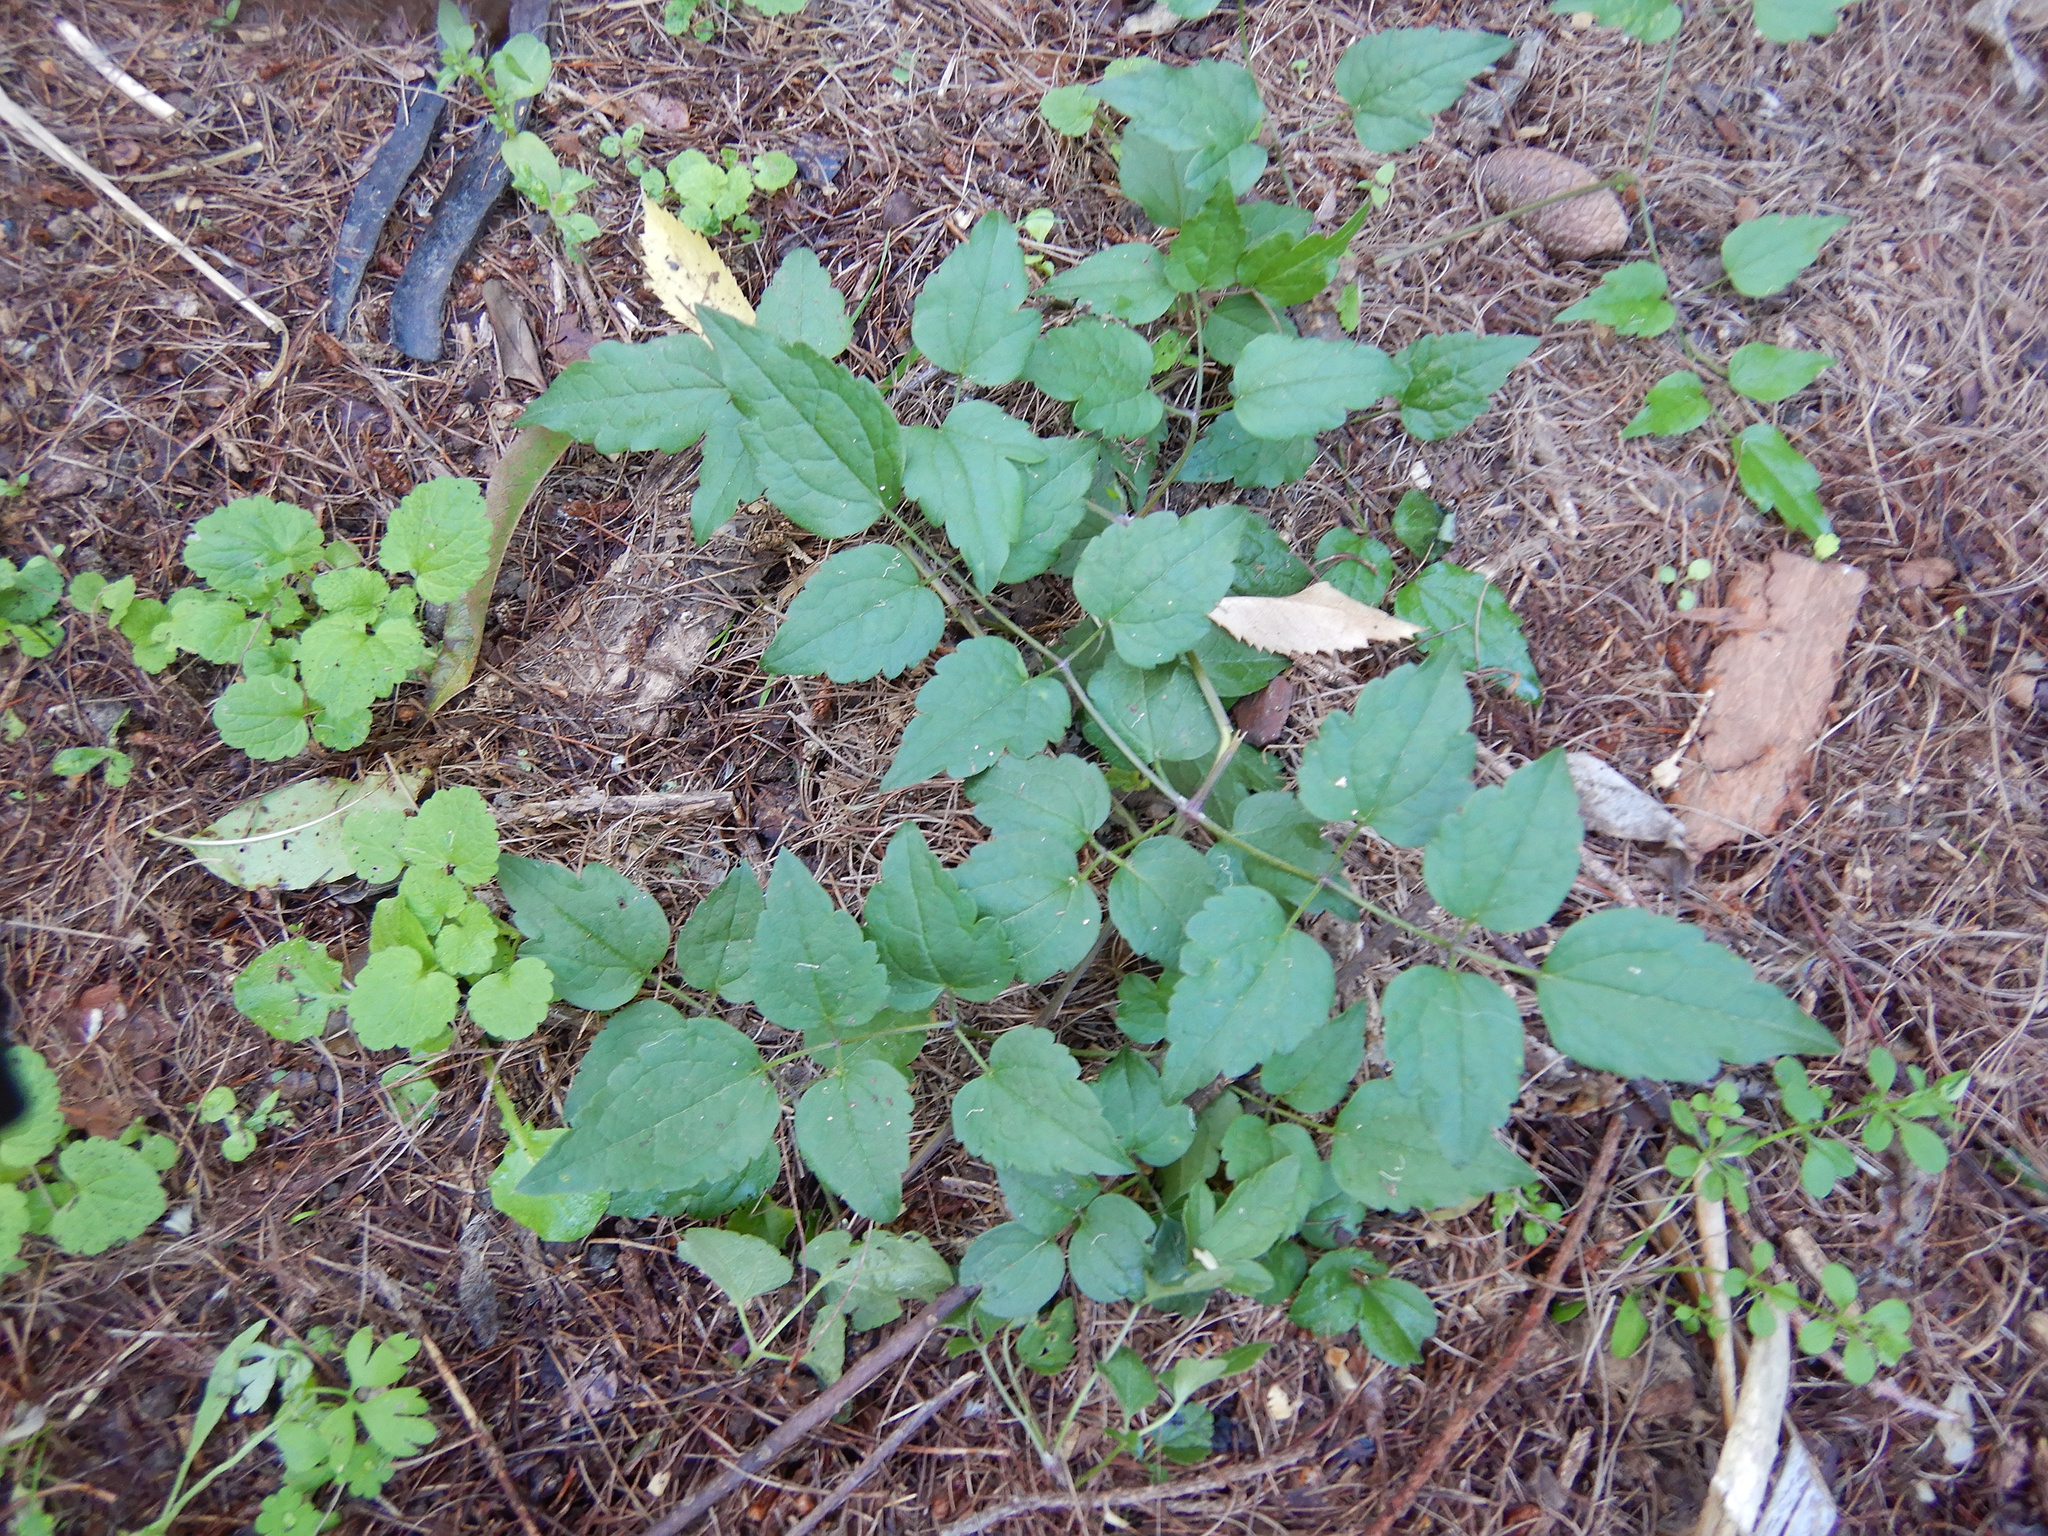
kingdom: Plantae
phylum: Tracheophyta
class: Magnoliopsida
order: Ranunculales
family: Ranunculaceae
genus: Clematis
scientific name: Clematis vitalba
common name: Evergreen clematis
